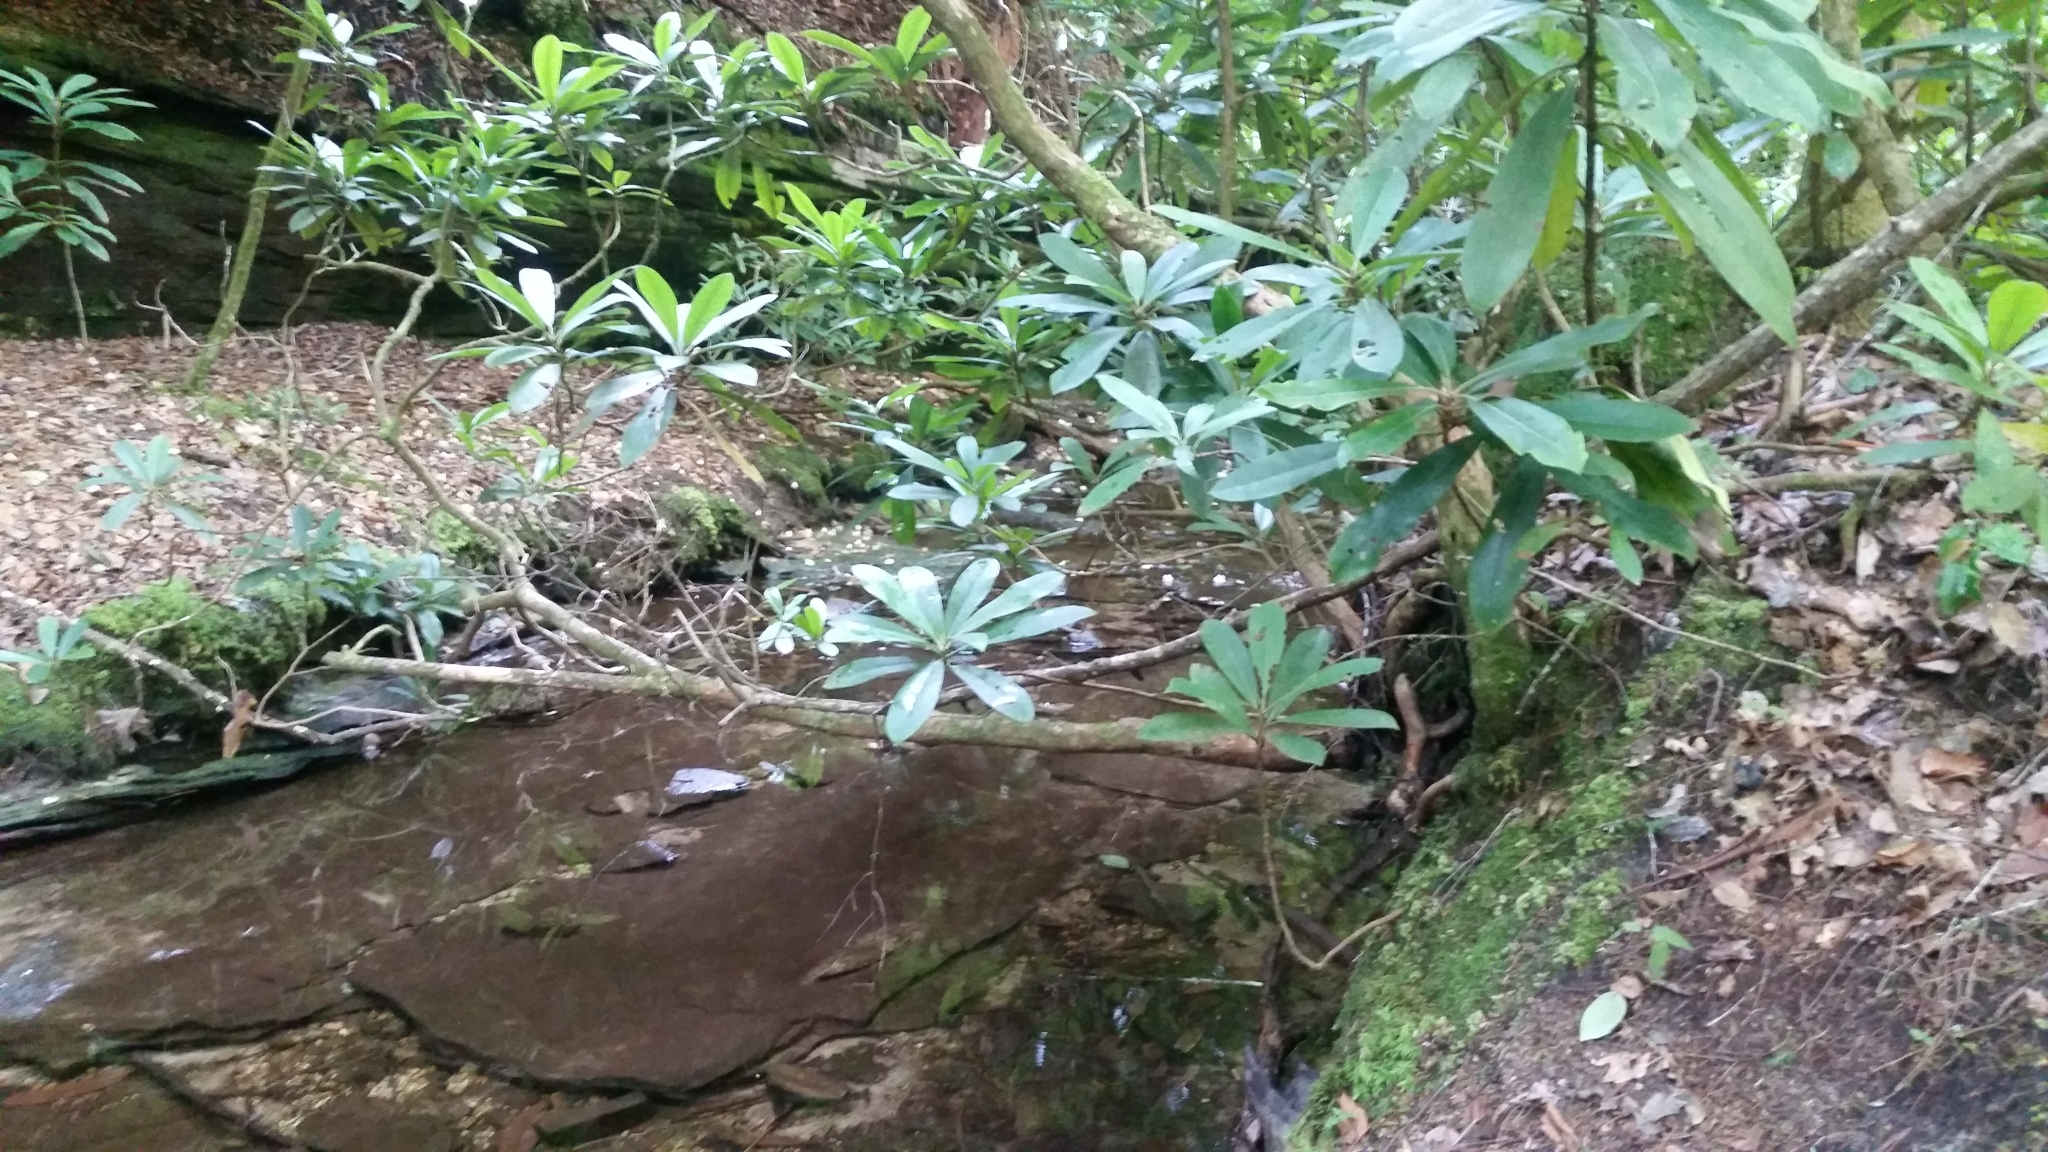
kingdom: Plantae
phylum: Tracheophyta
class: Magnoliopsida
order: Ericales
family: Ericaceae
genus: Rhododendron
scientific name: Rhododendron maximum
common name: Great rhododendron
